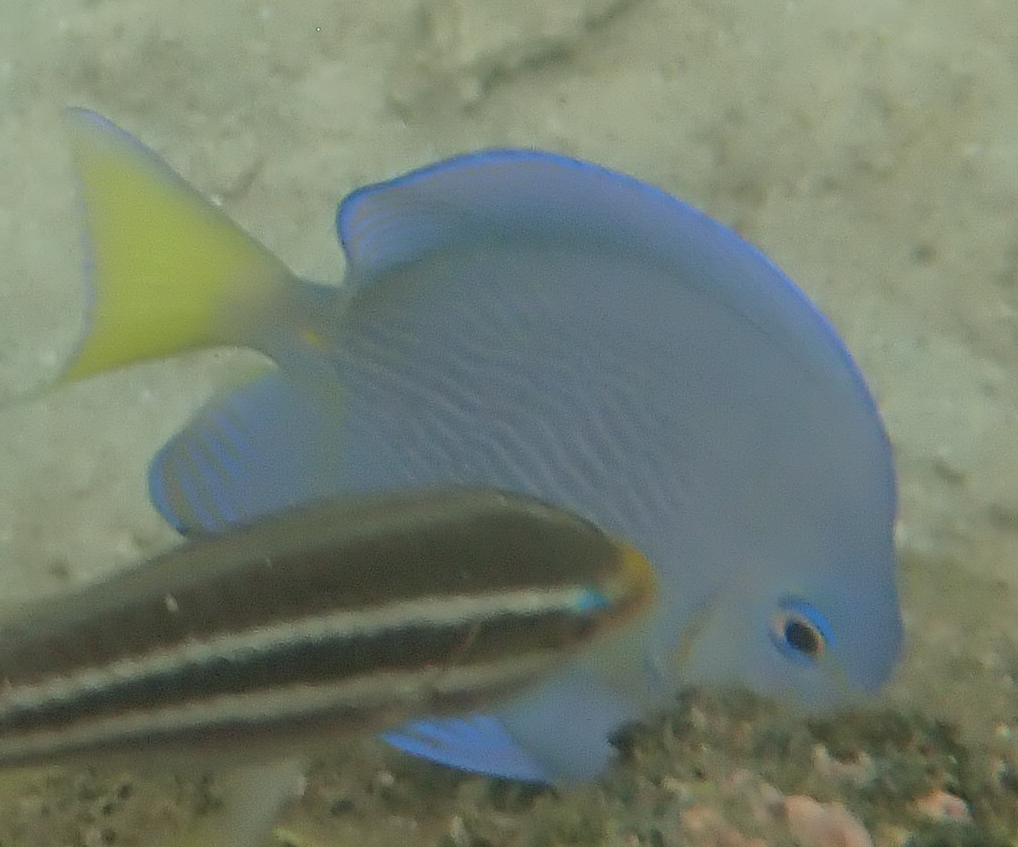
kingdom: Animalia
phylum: Chordata
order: Perciformes
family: Acanthuridae
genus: Acanthurus
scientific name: Acanthurus coeruleus
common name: Blue tang
